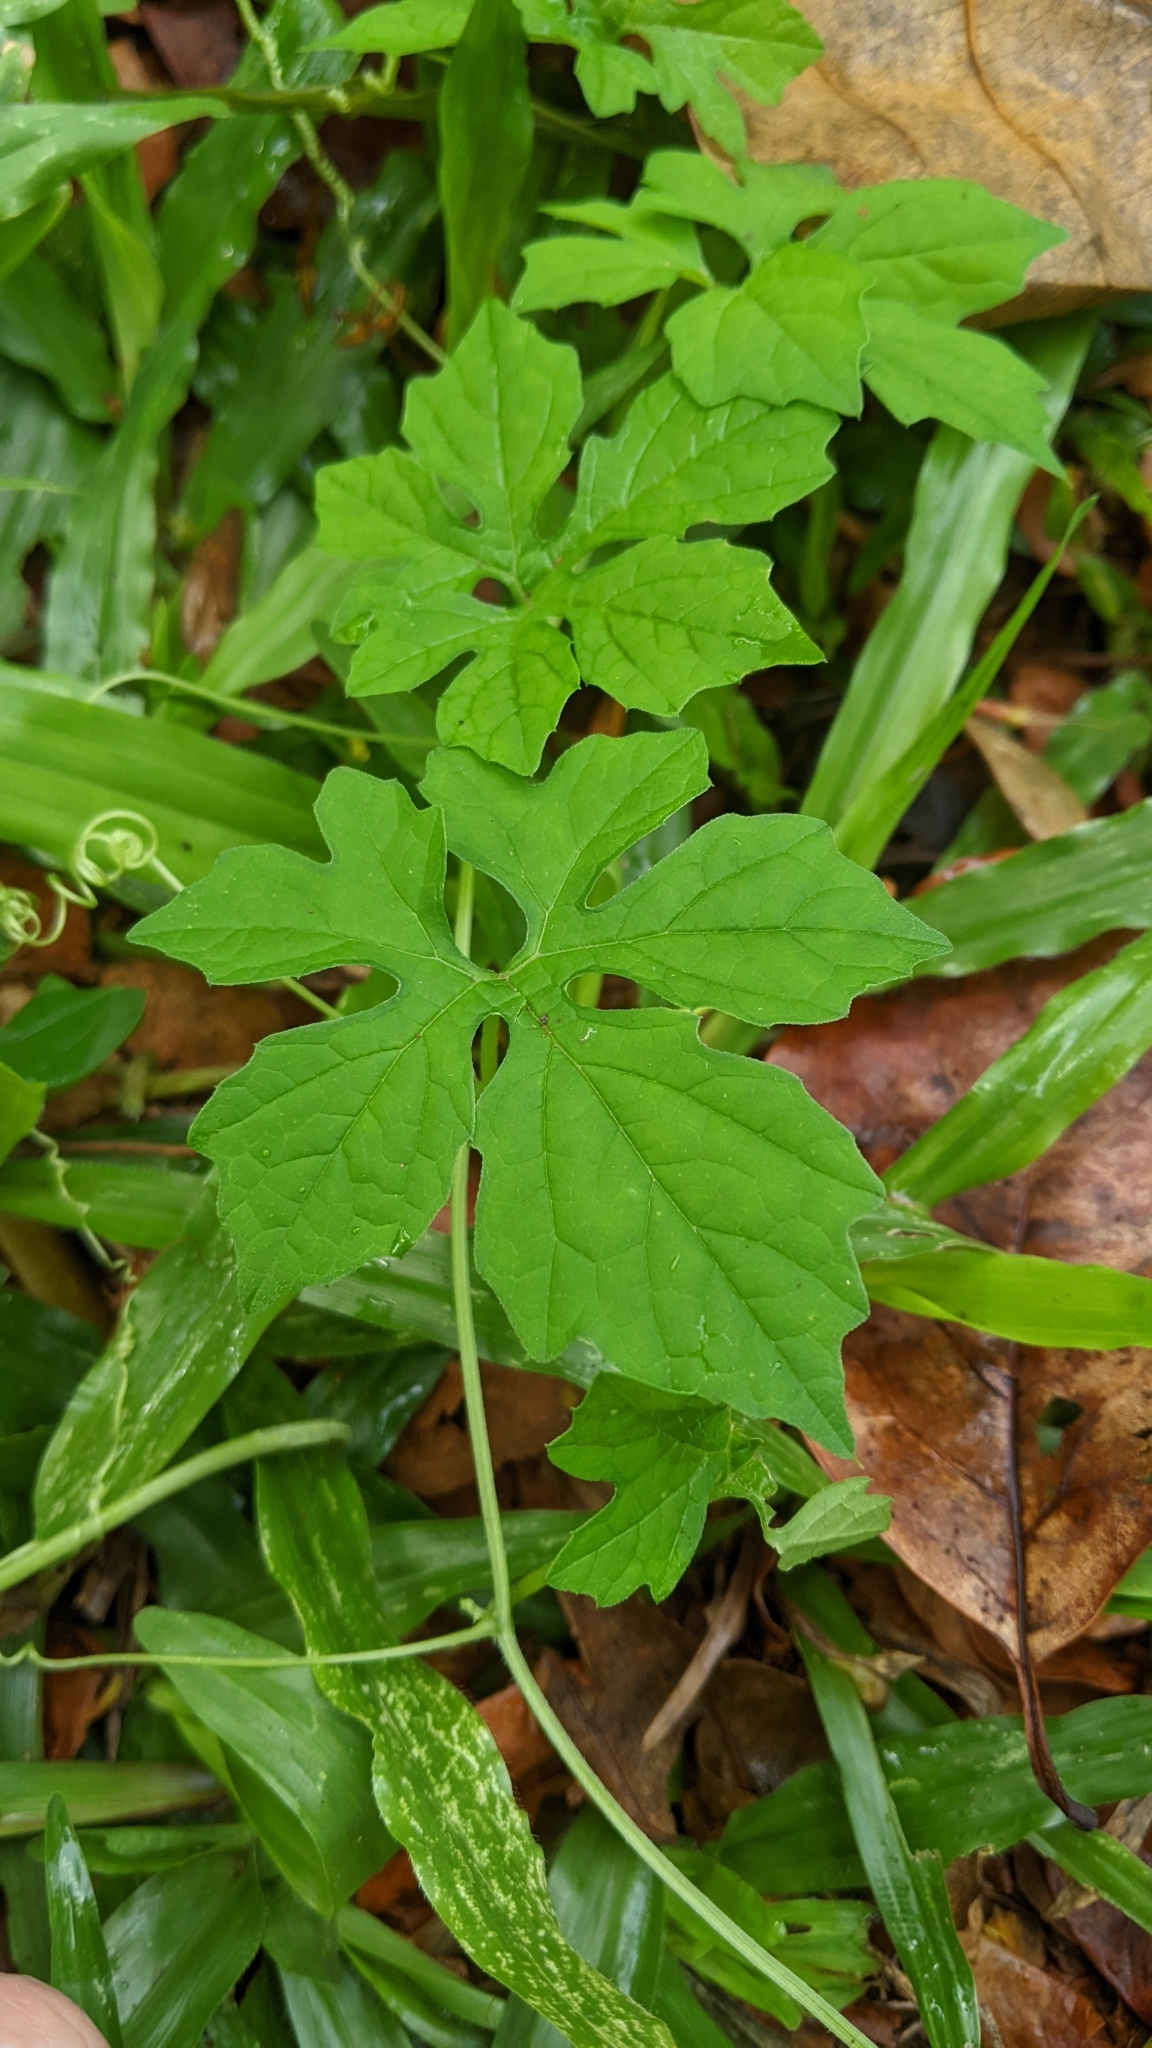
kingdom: Plantae
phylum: Tracheophyta
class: Magnoliopsida
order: Cucurbitales
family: Cucurbitaceae
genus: Momordica
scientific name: Momordica charantia
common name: Balsampear
